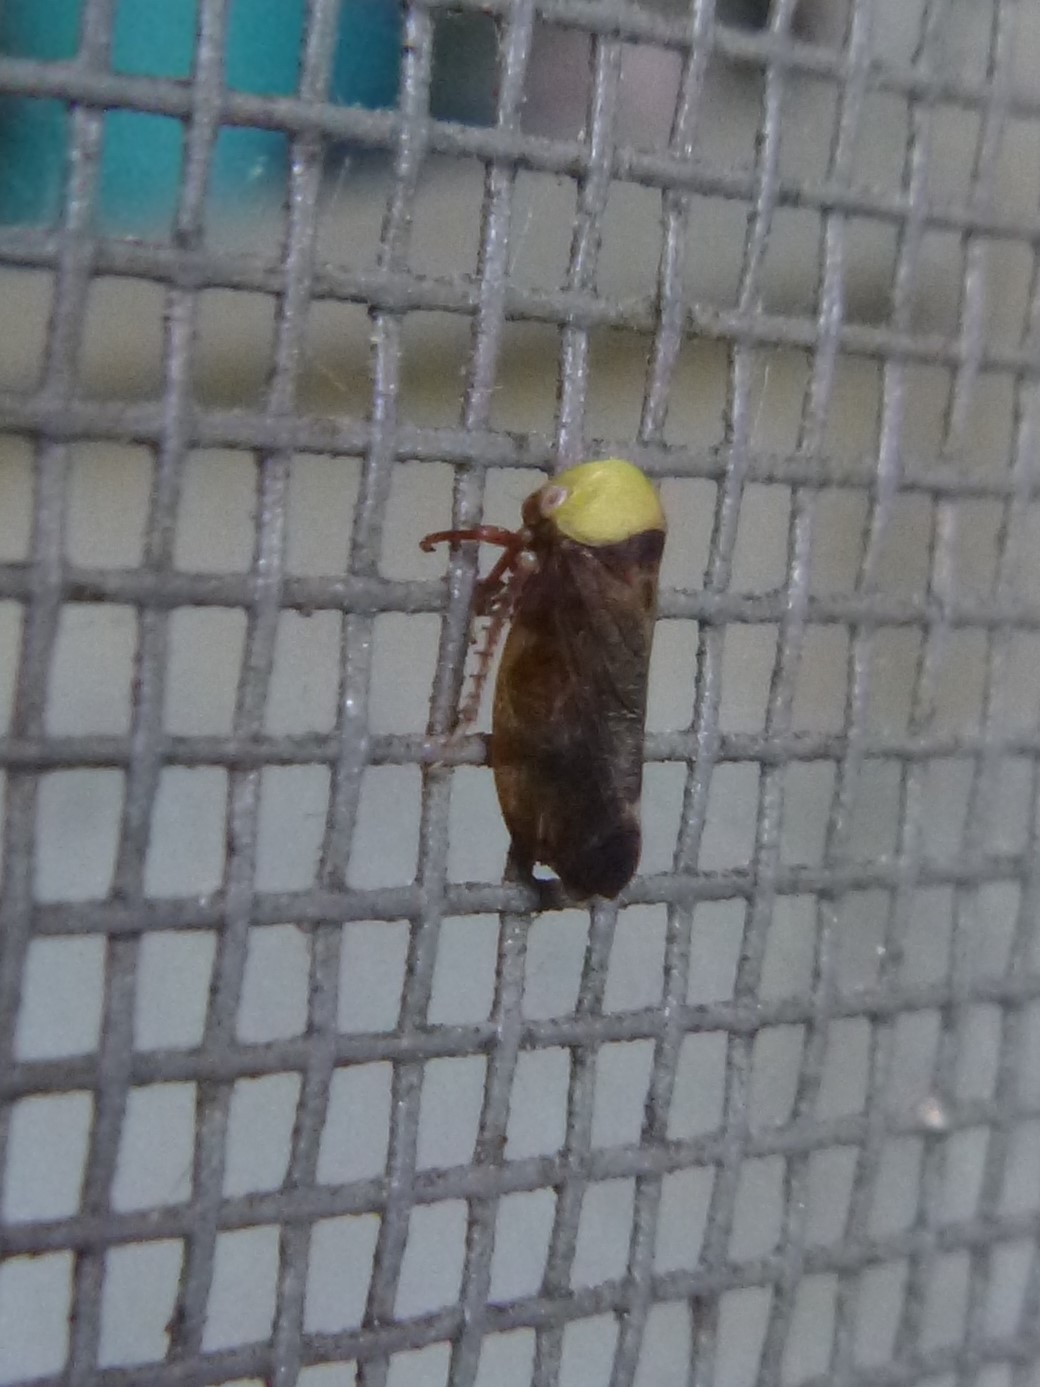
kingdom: Animalia
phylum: Arthropoda
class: Insecta
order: Hemiptera
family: Cicadellidae
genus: Pediopsis
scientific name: Pediopsis tiliae
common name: Leafhopper
